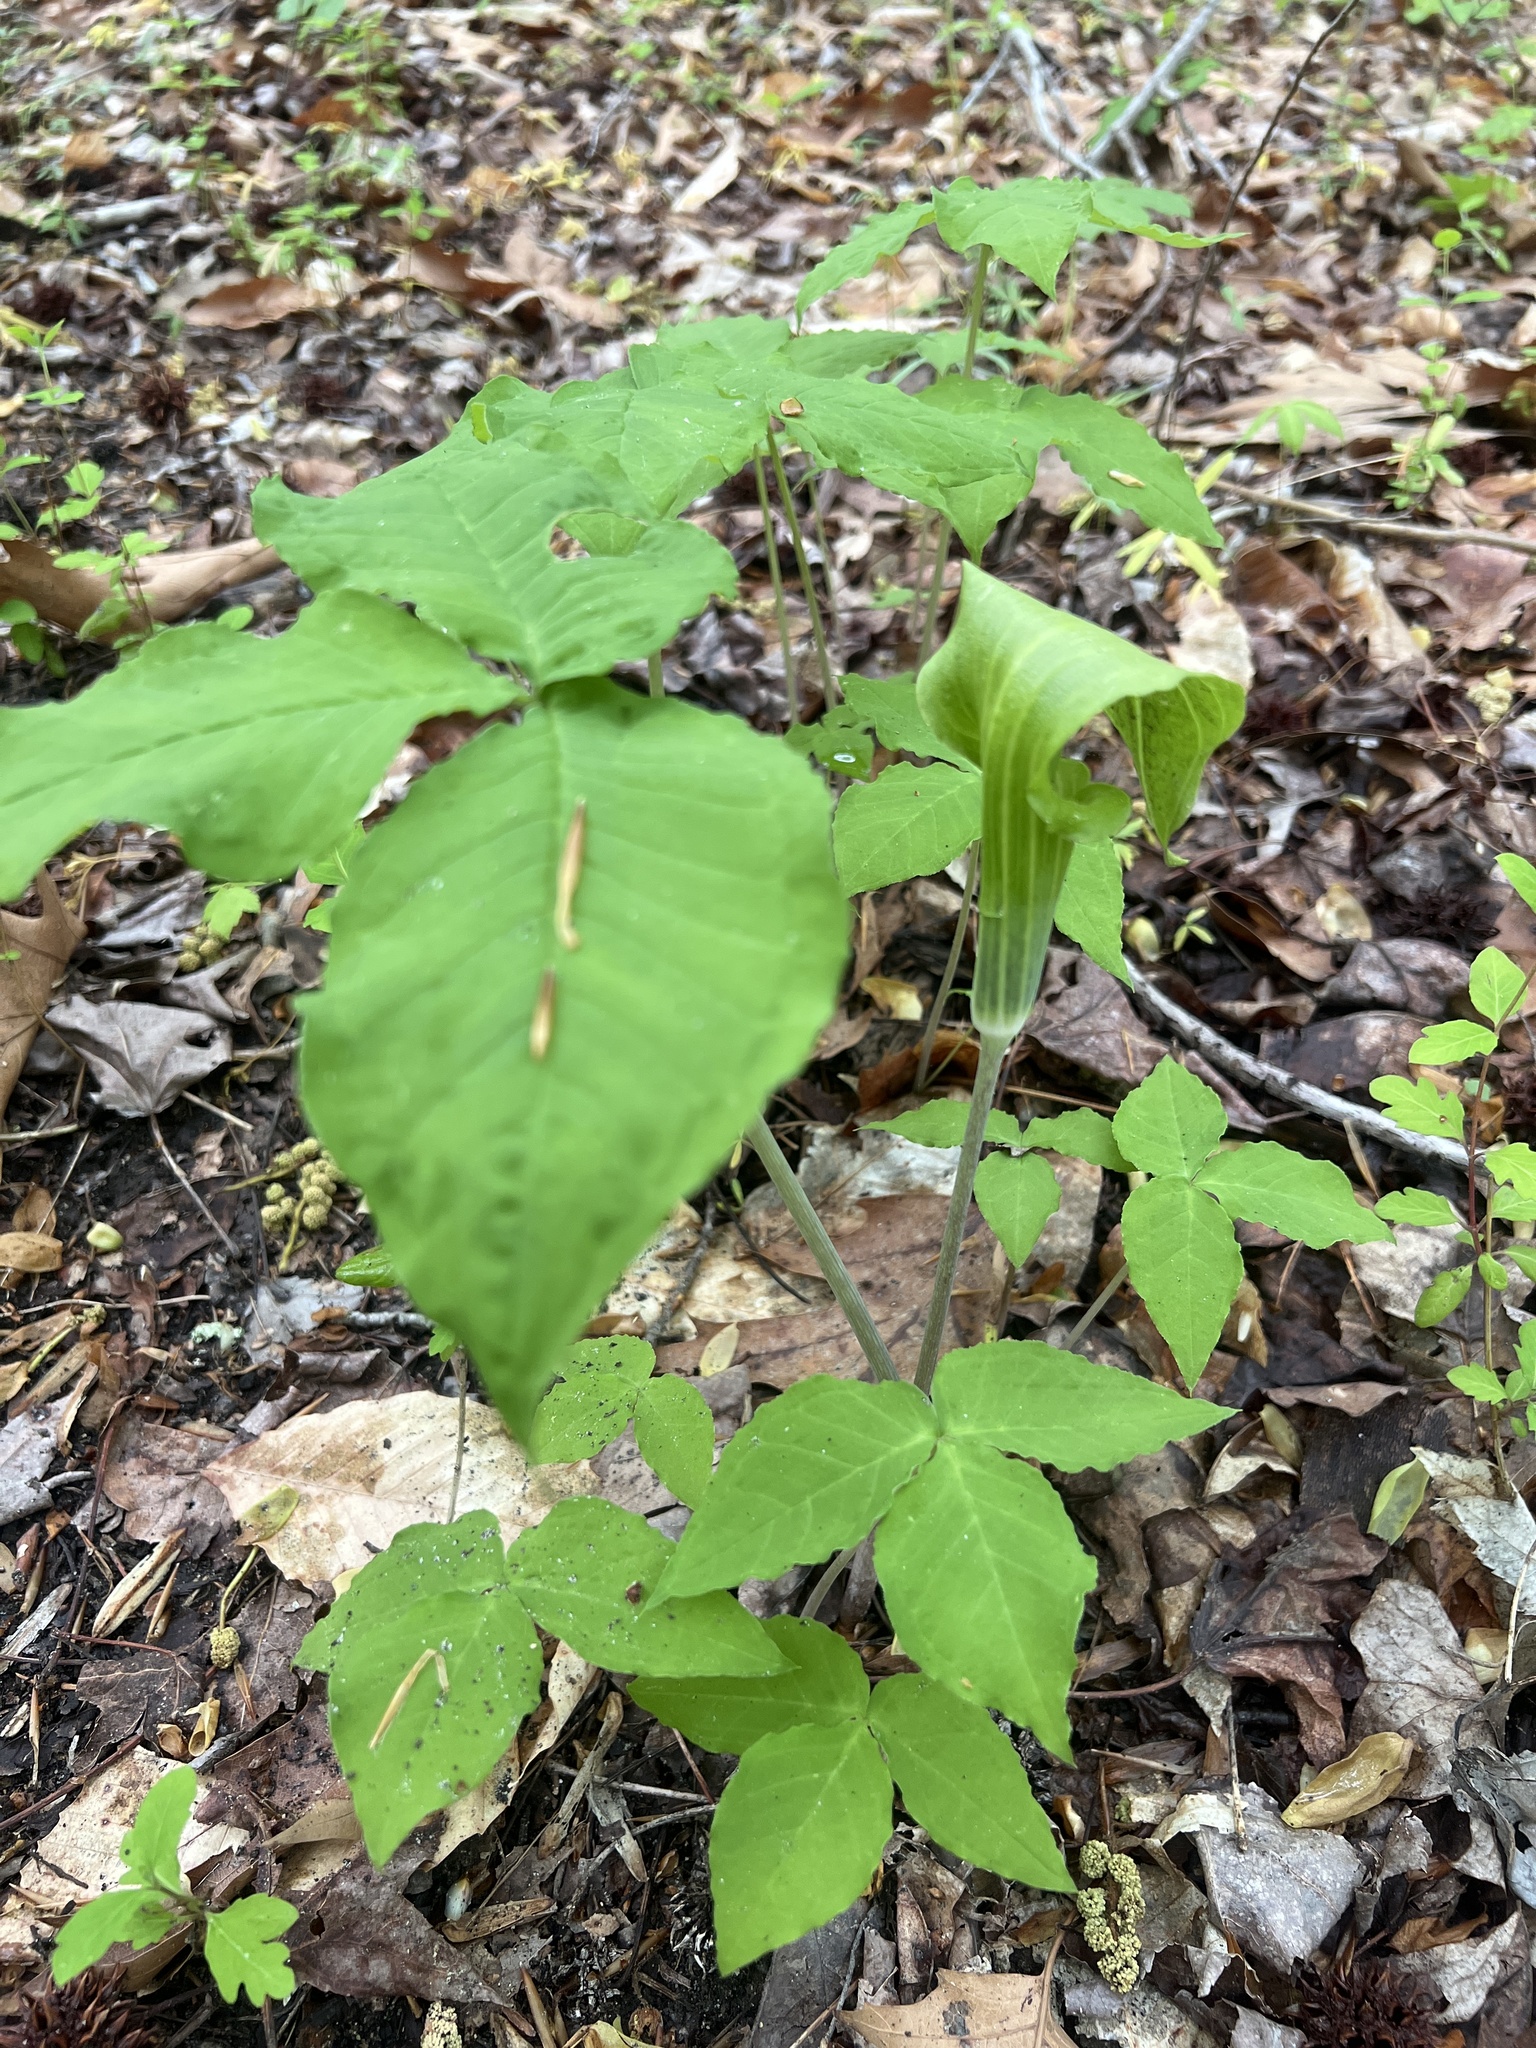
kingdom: Plantae
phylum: Tracheophyta
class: Liliopsida
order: Alismatales
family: Araceae
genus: Arisaema
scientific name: Arisaema triphyllum
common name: Jack-in-the-pulpit
